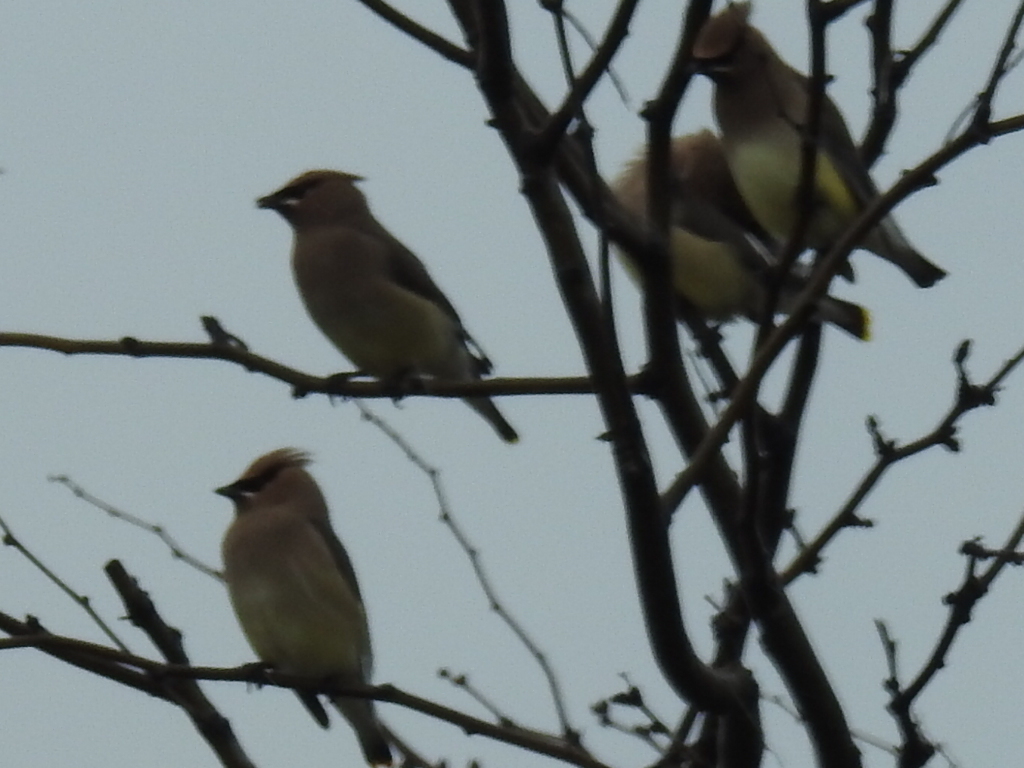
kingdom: Animalia
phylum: Chordata
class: Aves
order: Passeriformes
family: Bombycillidae
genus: Bombycilla
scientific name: Bombycilla cedrorum
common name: Cedar waxwing
